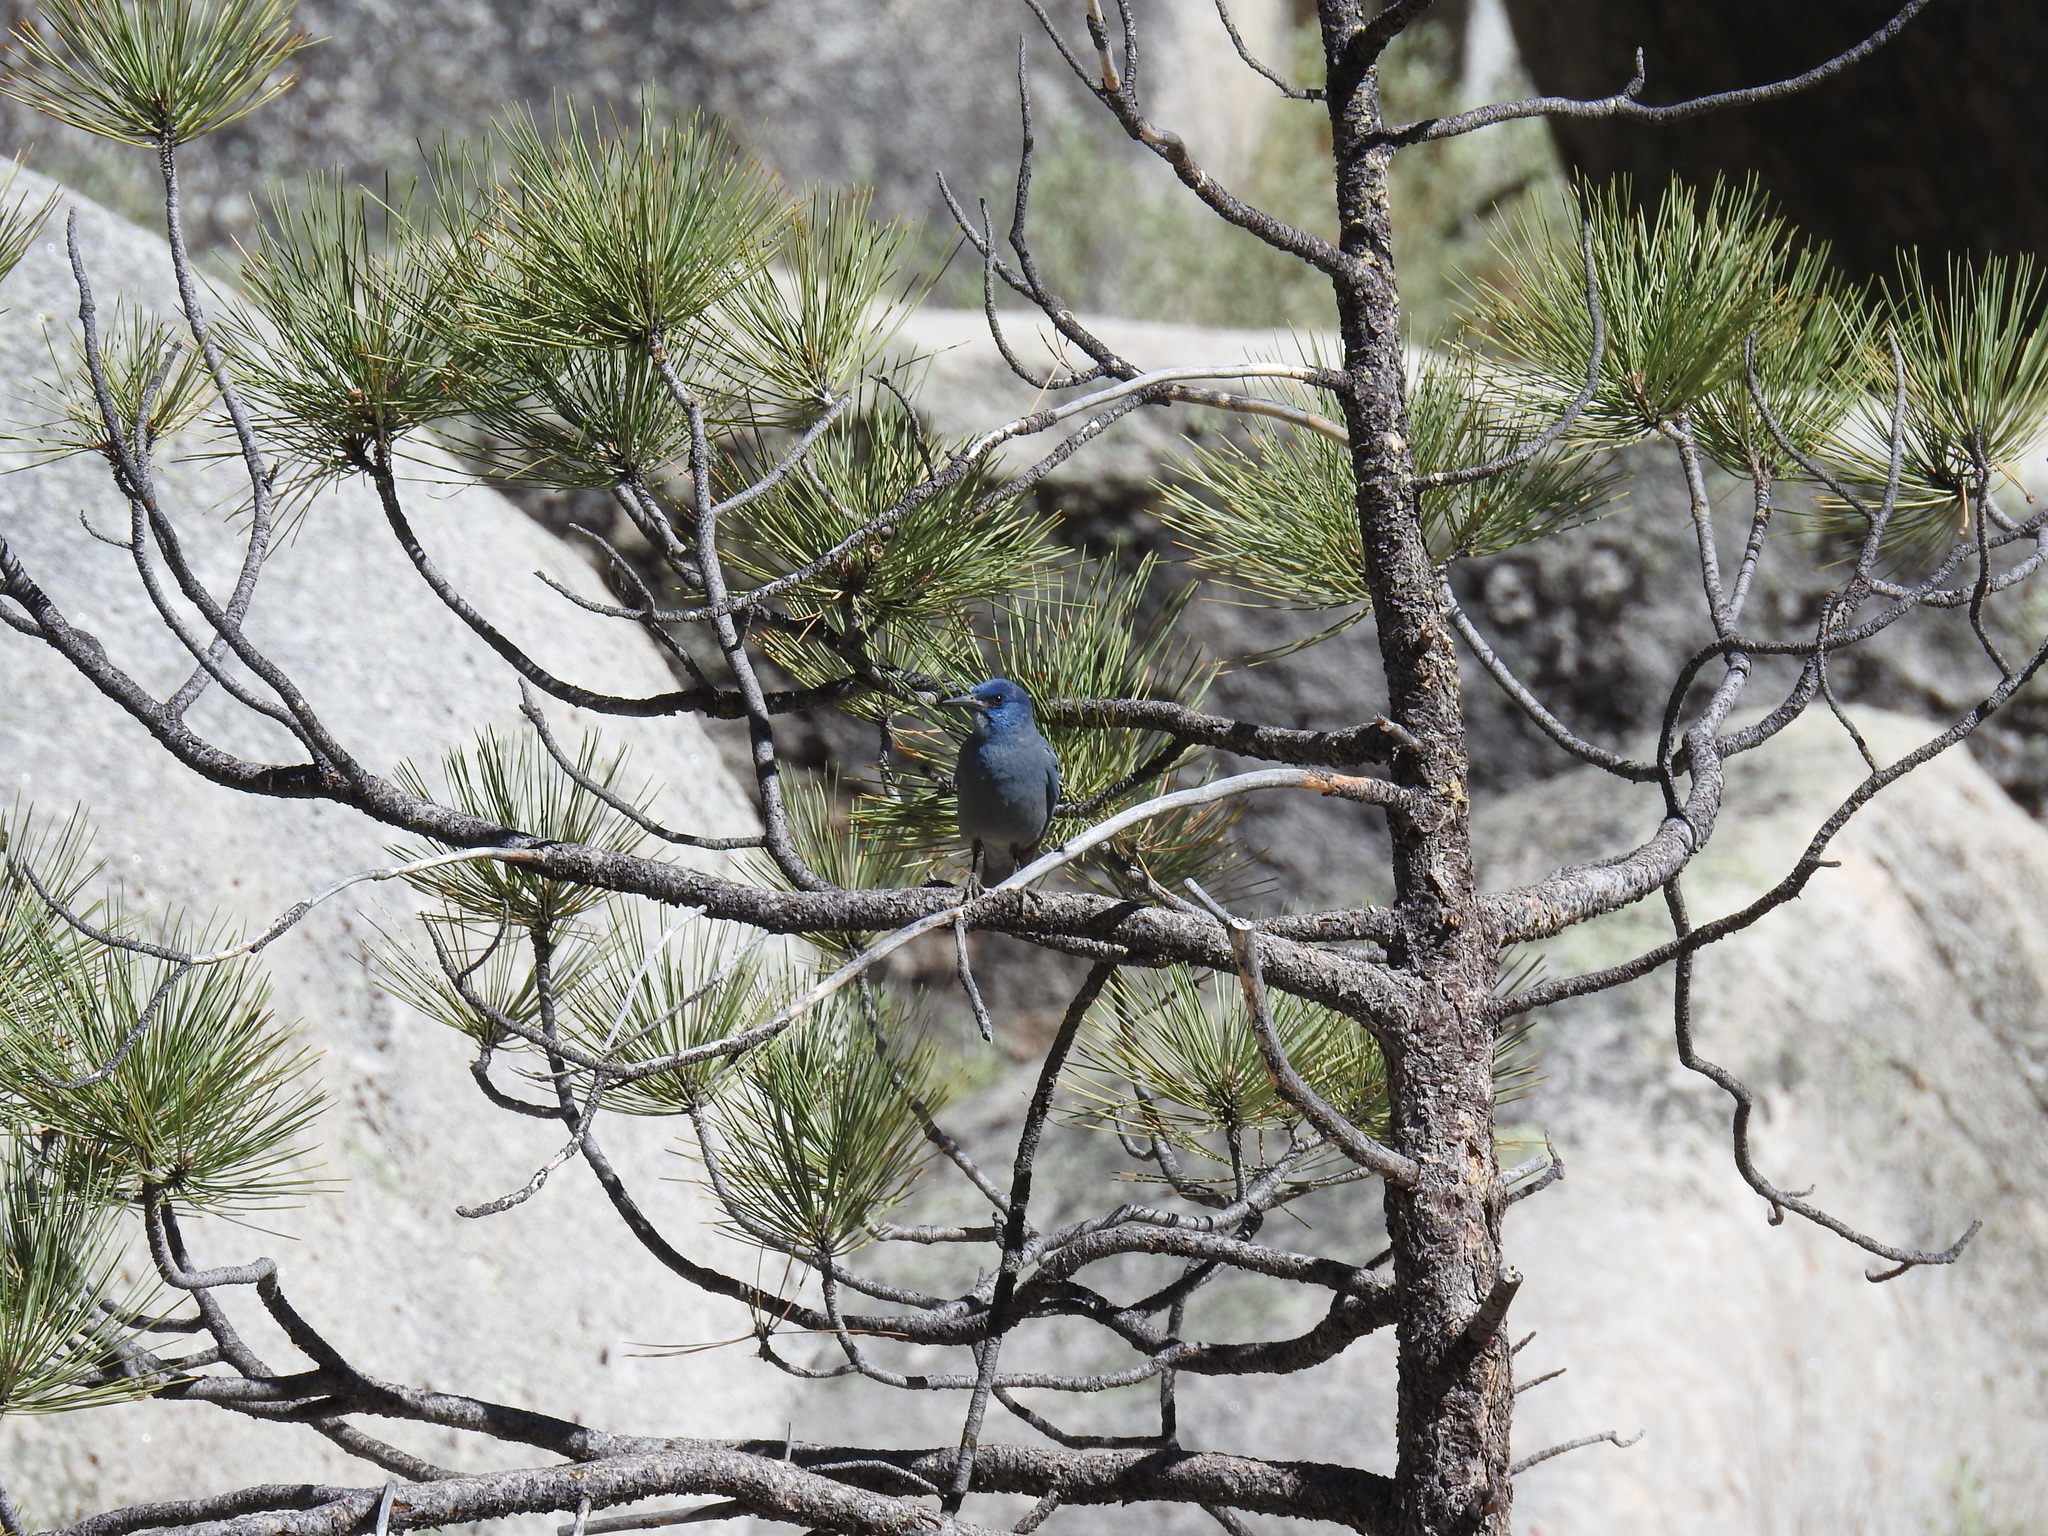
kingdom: Animalia
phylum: Chordata
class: Aves
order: Passeriformes
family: Corvidae
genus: Gymnorhinus
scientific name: Gymnorhinus cyanocephalus
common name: Pinyon jay
